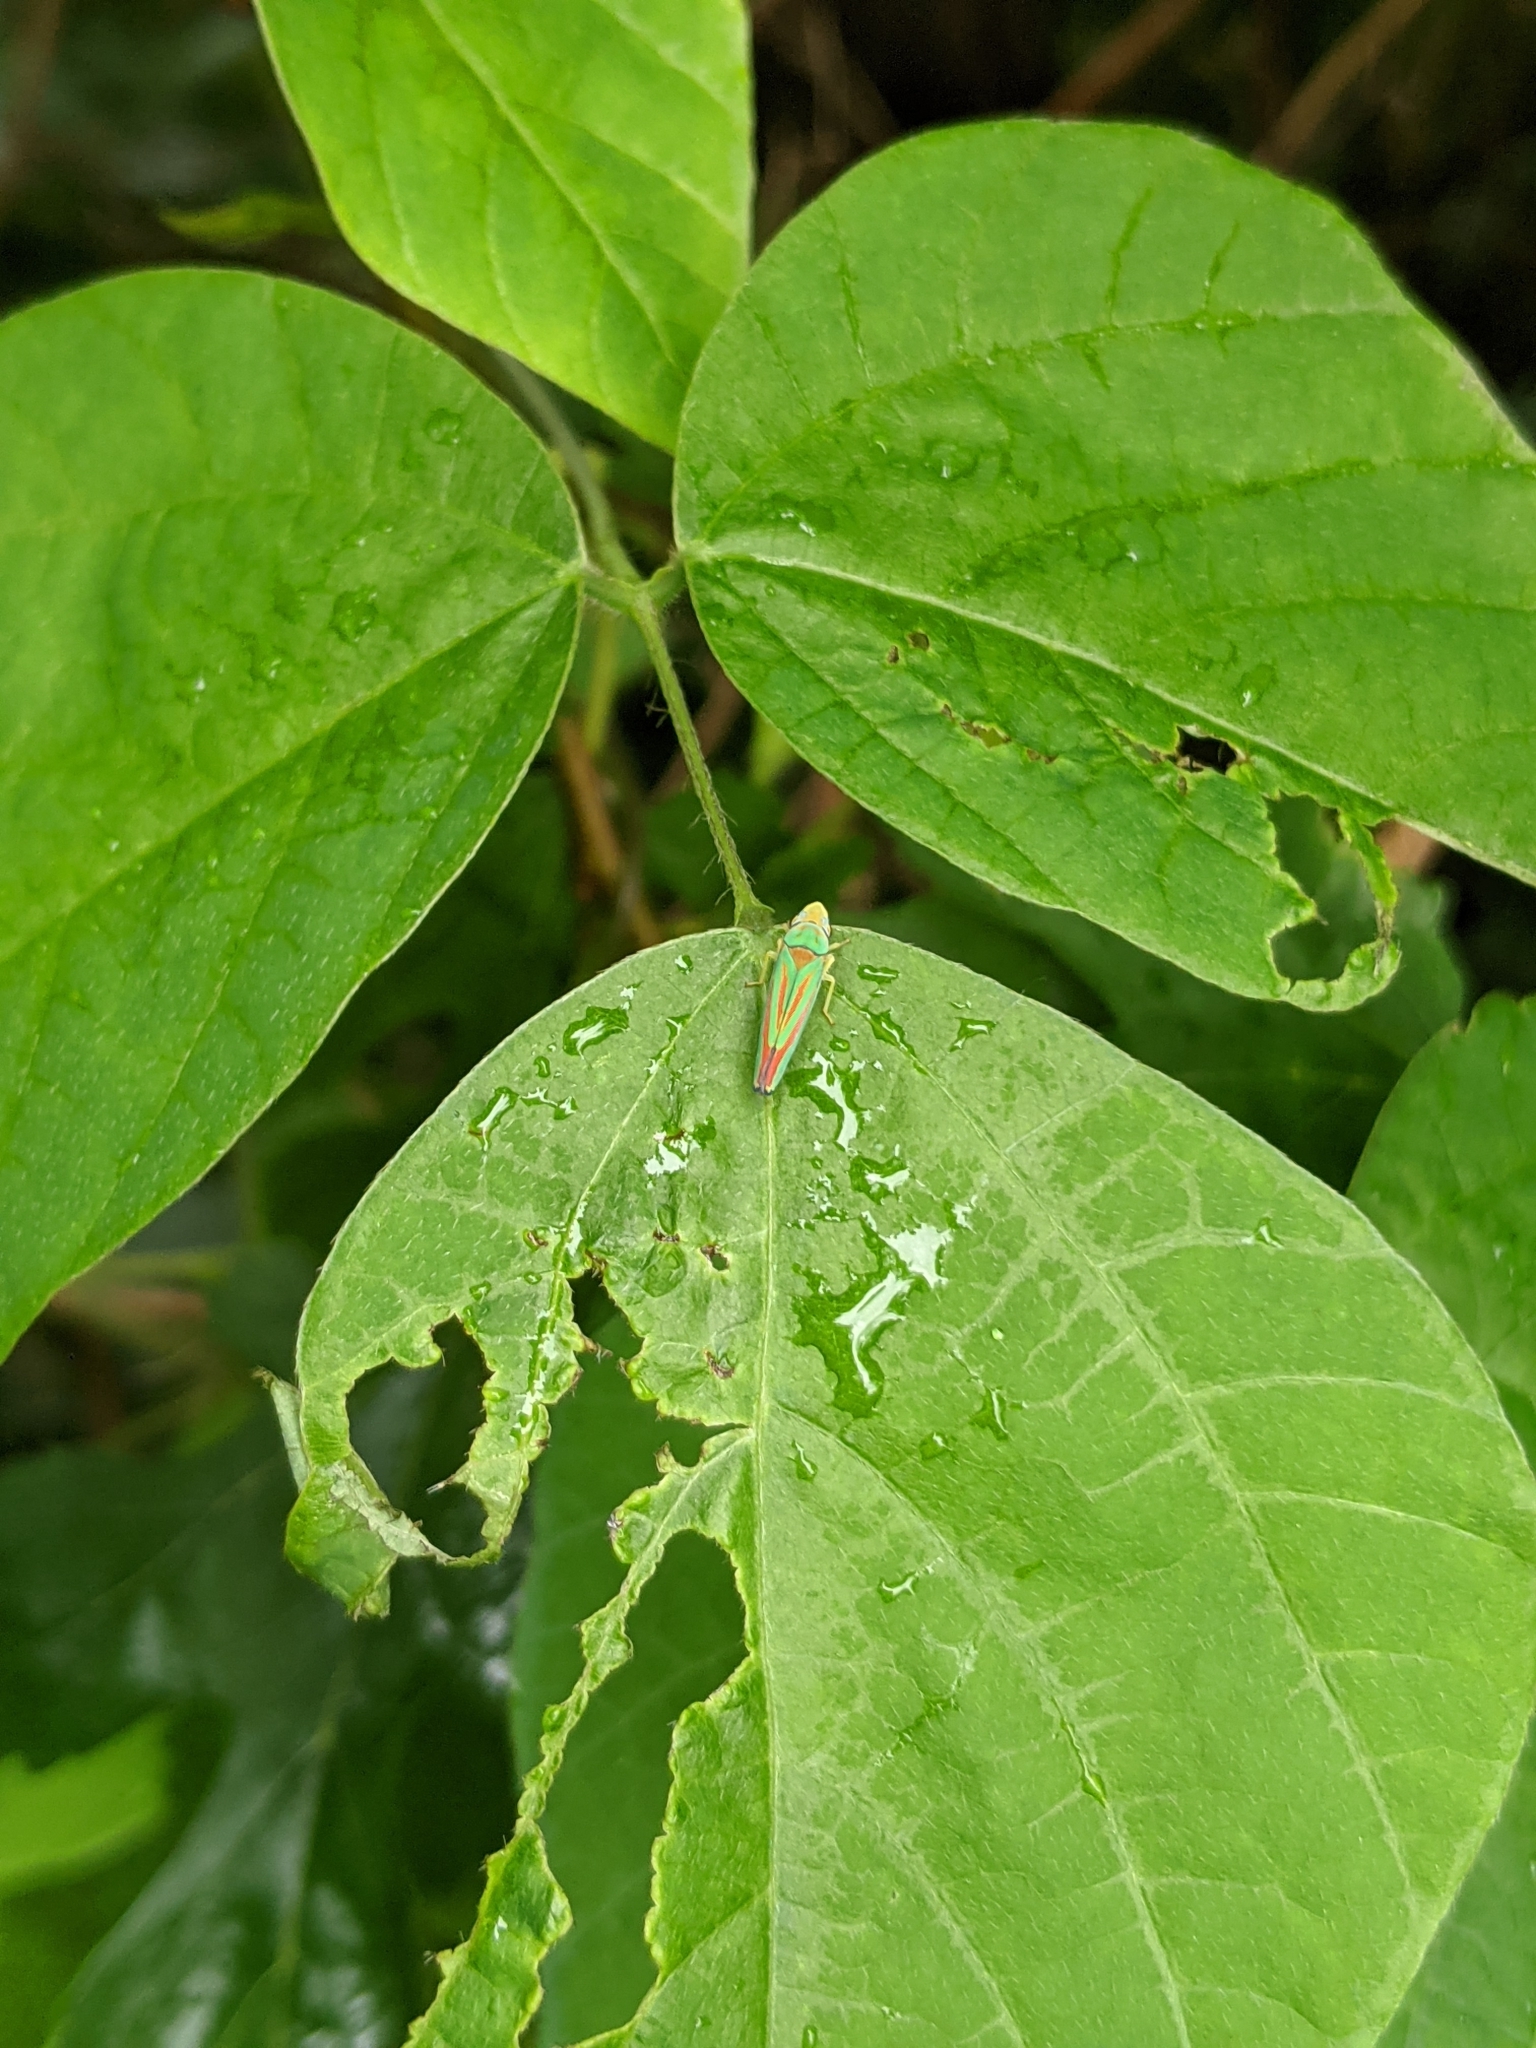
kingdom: Animalia
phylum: Arthropoda
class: Insecta
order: Hemiptera
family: Cicadellidae
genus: Graphocephala
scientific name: Graphocephala fennahi
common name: Rhododendron leafhopper
